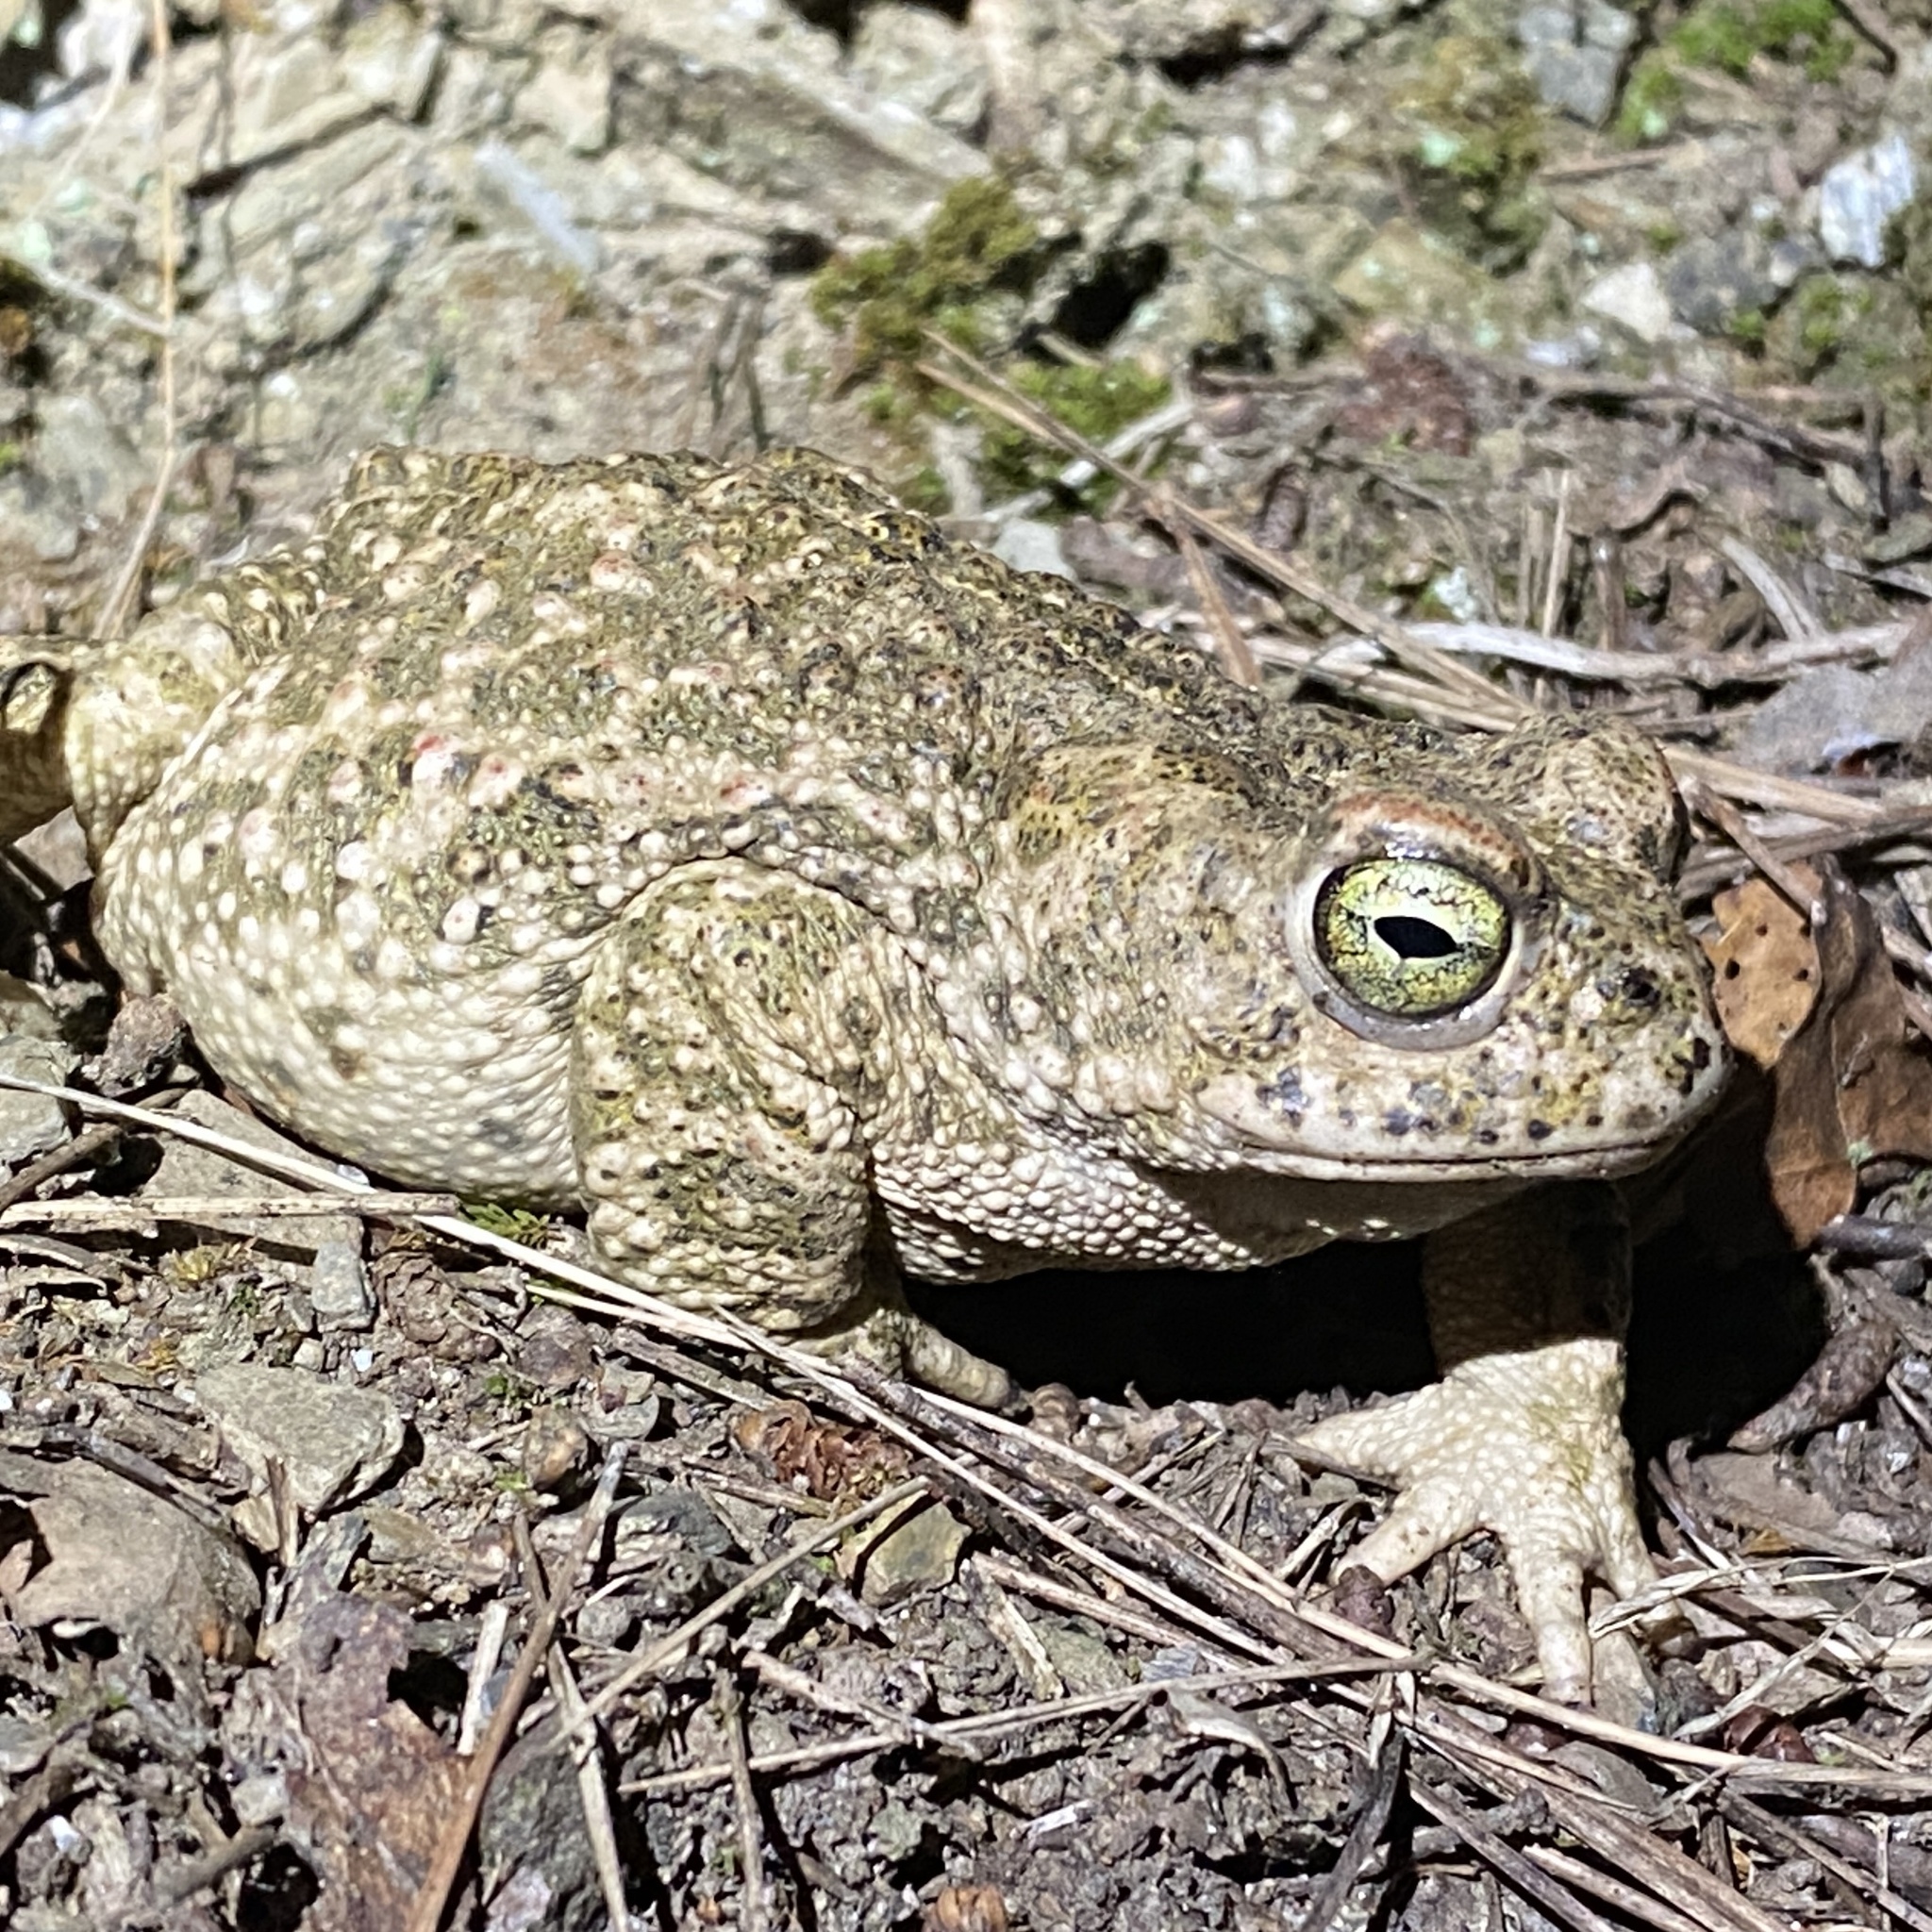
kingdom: Animalia
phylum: Chordata
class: Amphibia
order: Anura
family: Bufonidae
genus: Epidalea
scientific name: Epidalea calamita
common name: Natterjack toad
